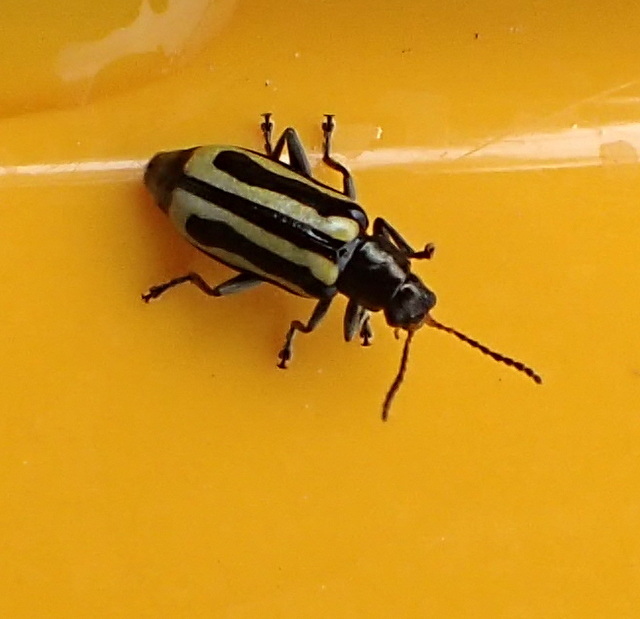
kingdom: Animalia
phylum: Arthropoda
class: Insecta
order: Coleoptera
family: Chrysomelidae
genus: Agasicles
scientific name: Agasicles hygrophila
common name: Alligatorweed flea beetle
